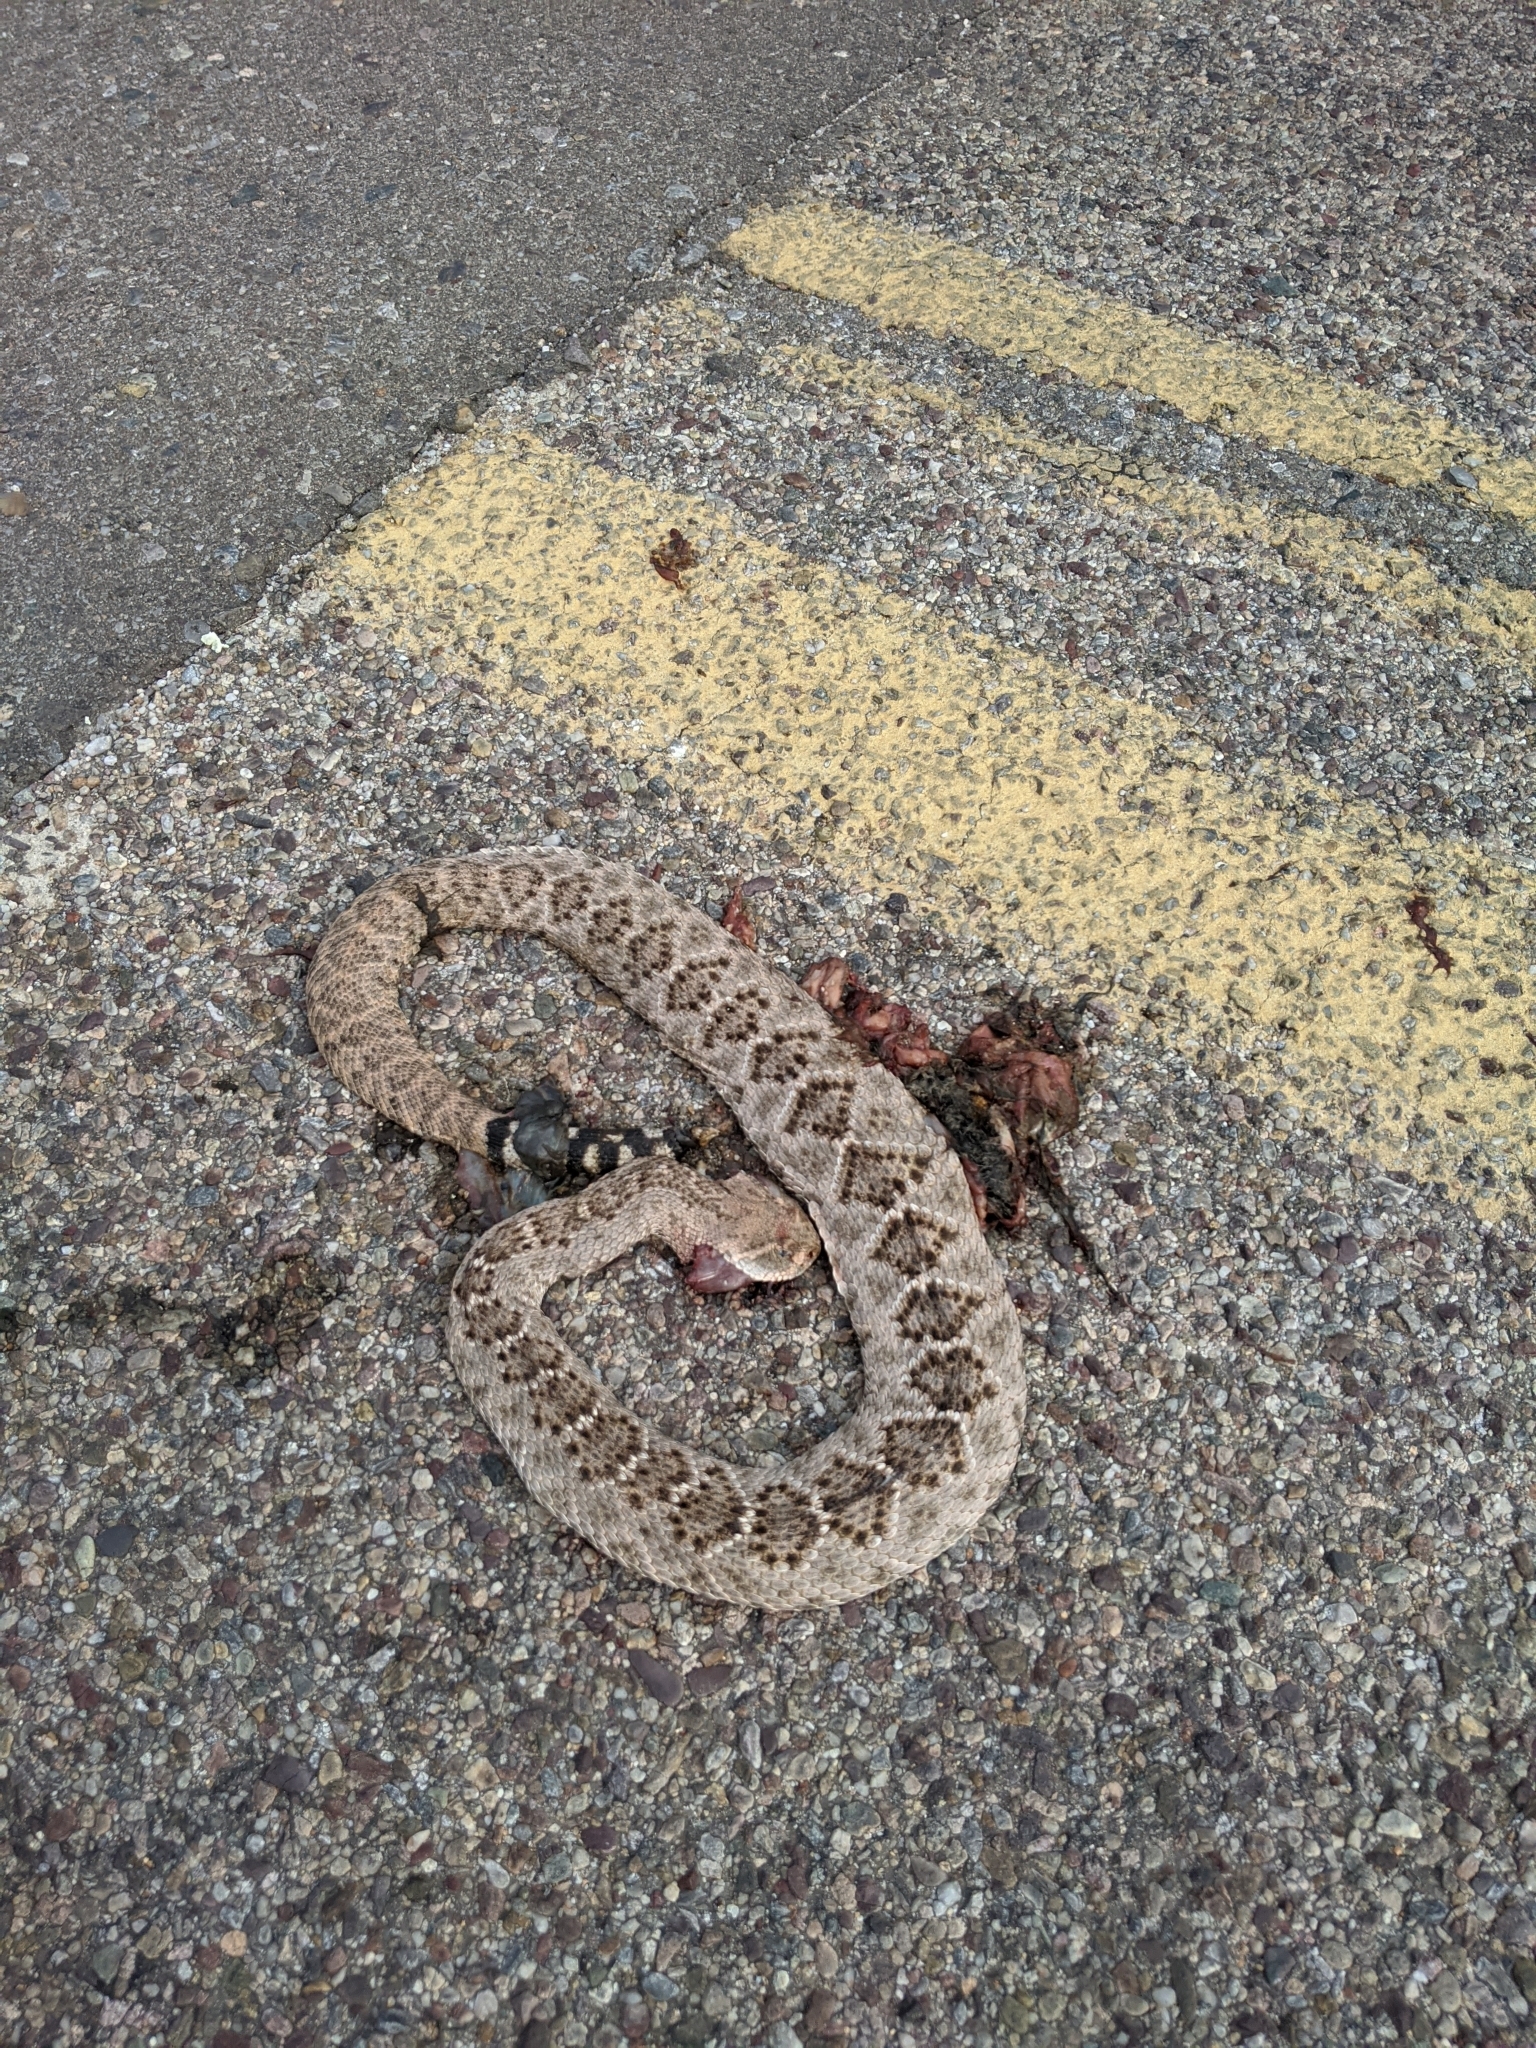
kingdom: Animalia
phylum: Chordata
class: Squamata
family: Viperidae
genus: Crotalus
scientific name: Crotalus atrox
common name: Western diamond-backed rattlesnake
